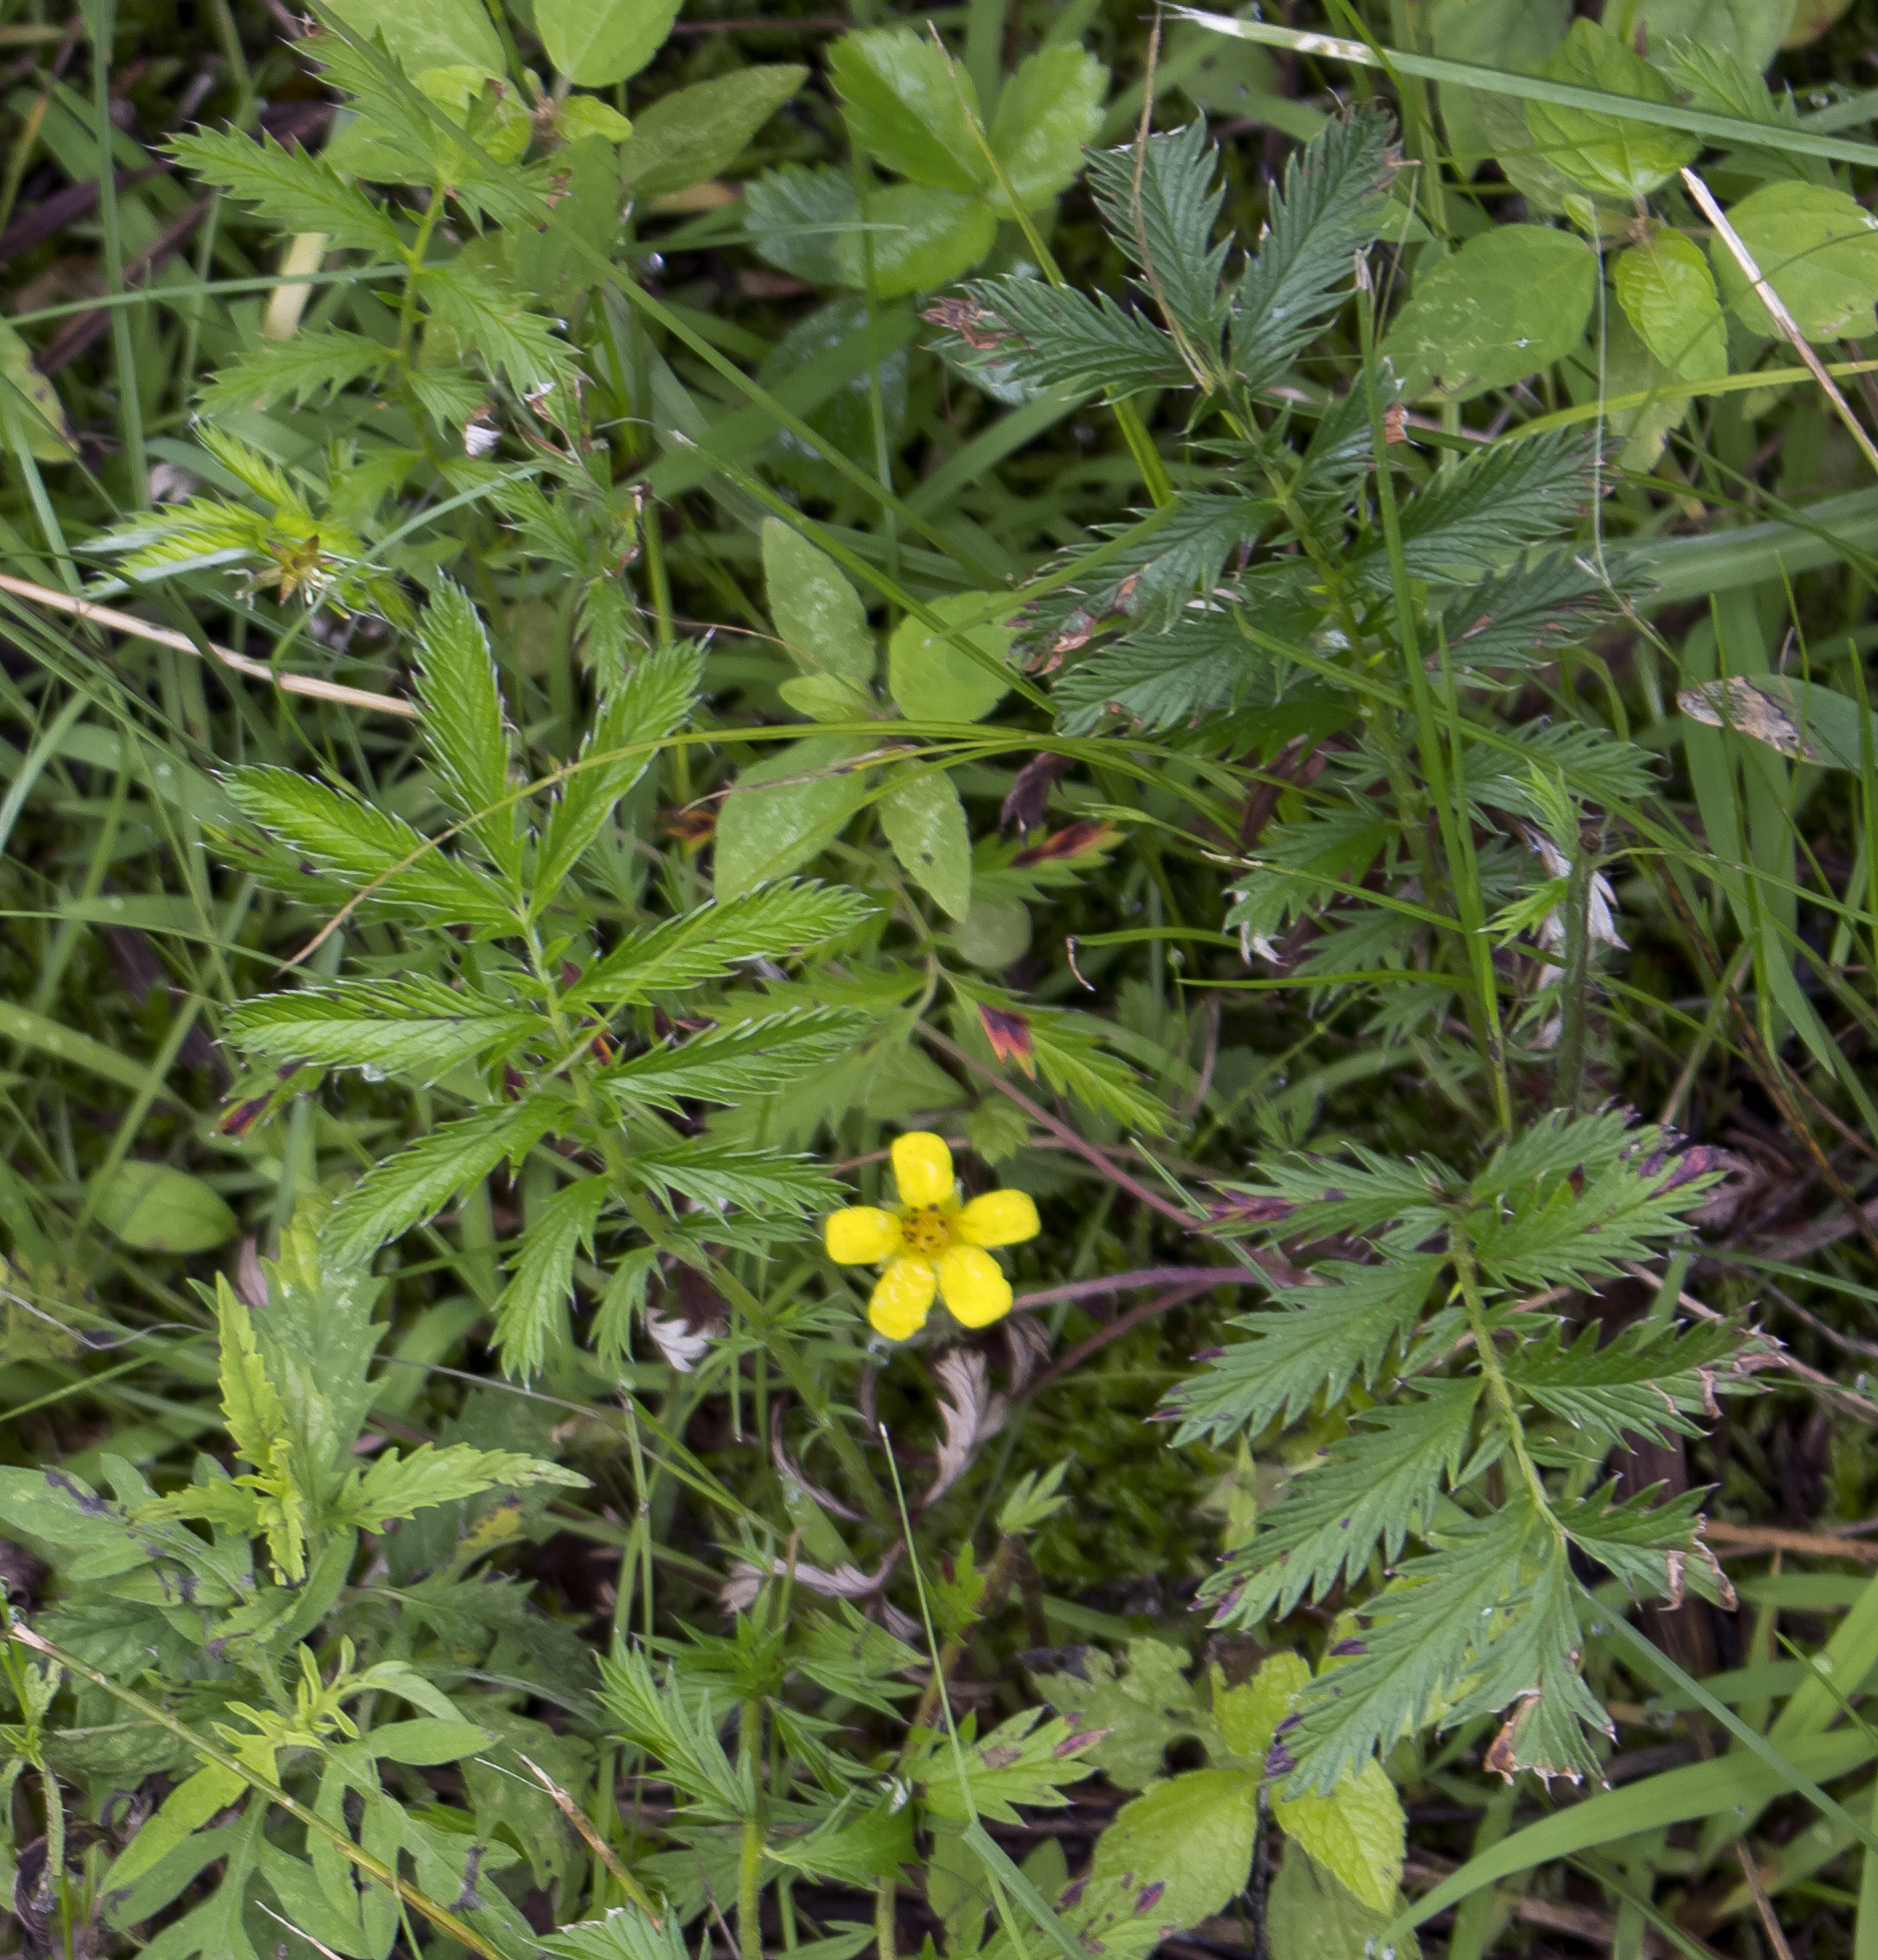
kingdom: Plantae
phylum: Tracheophyta
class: Magnoliopsida
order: Rosales
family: Rosaceae
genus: Argentina
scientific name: Argentina anserina
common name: Common silverweed
